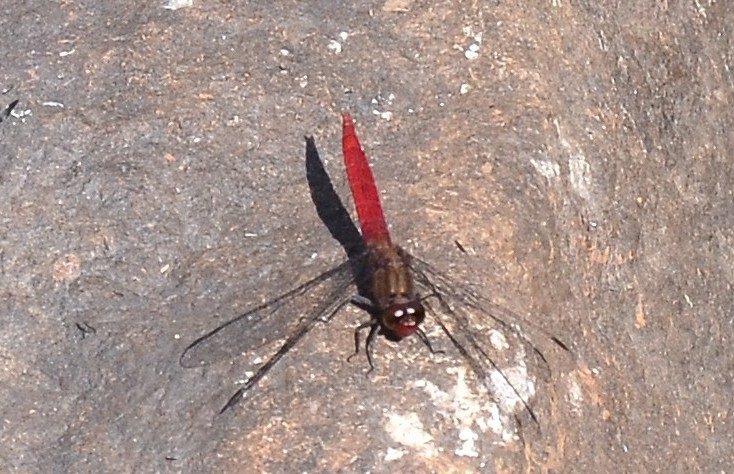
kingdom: Animalia
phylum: Arthropoda
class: Insecta
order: Odonata
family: Libellulidae
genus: Orthetrum
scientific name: Orthetrum chrysis
